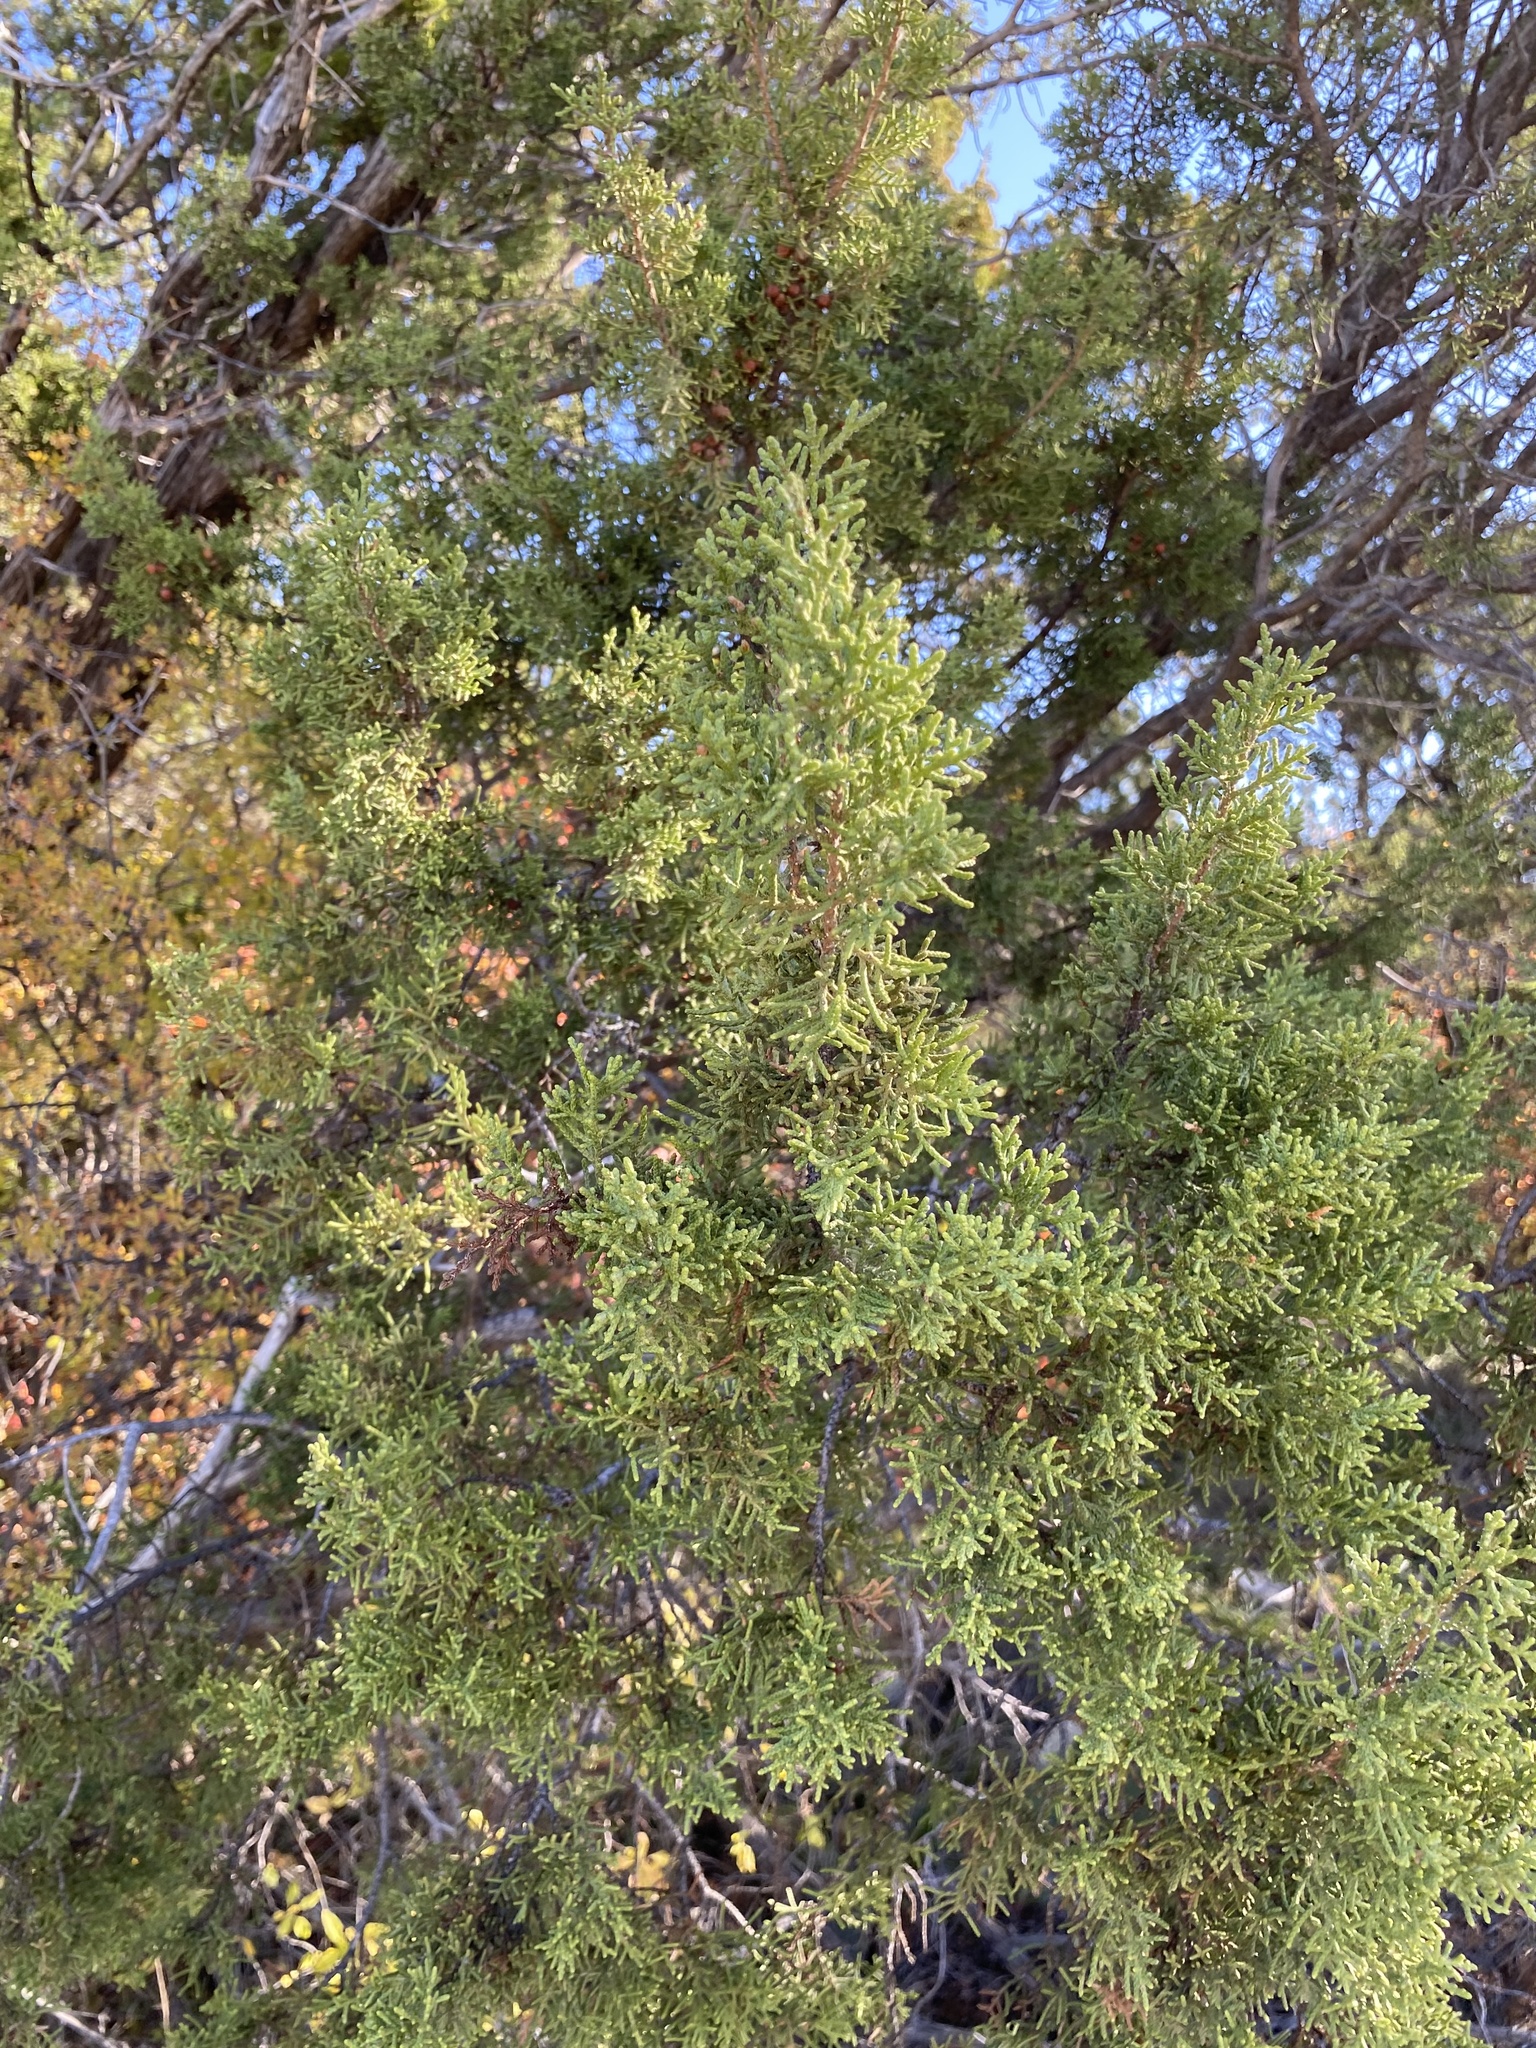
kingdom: Plantae
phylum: Tracheophyta
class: Pinopsida
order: Pinales
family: Cupressaceae
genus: Juniperus
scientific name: Juniperus pinchotii
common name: Pinchot juniper
